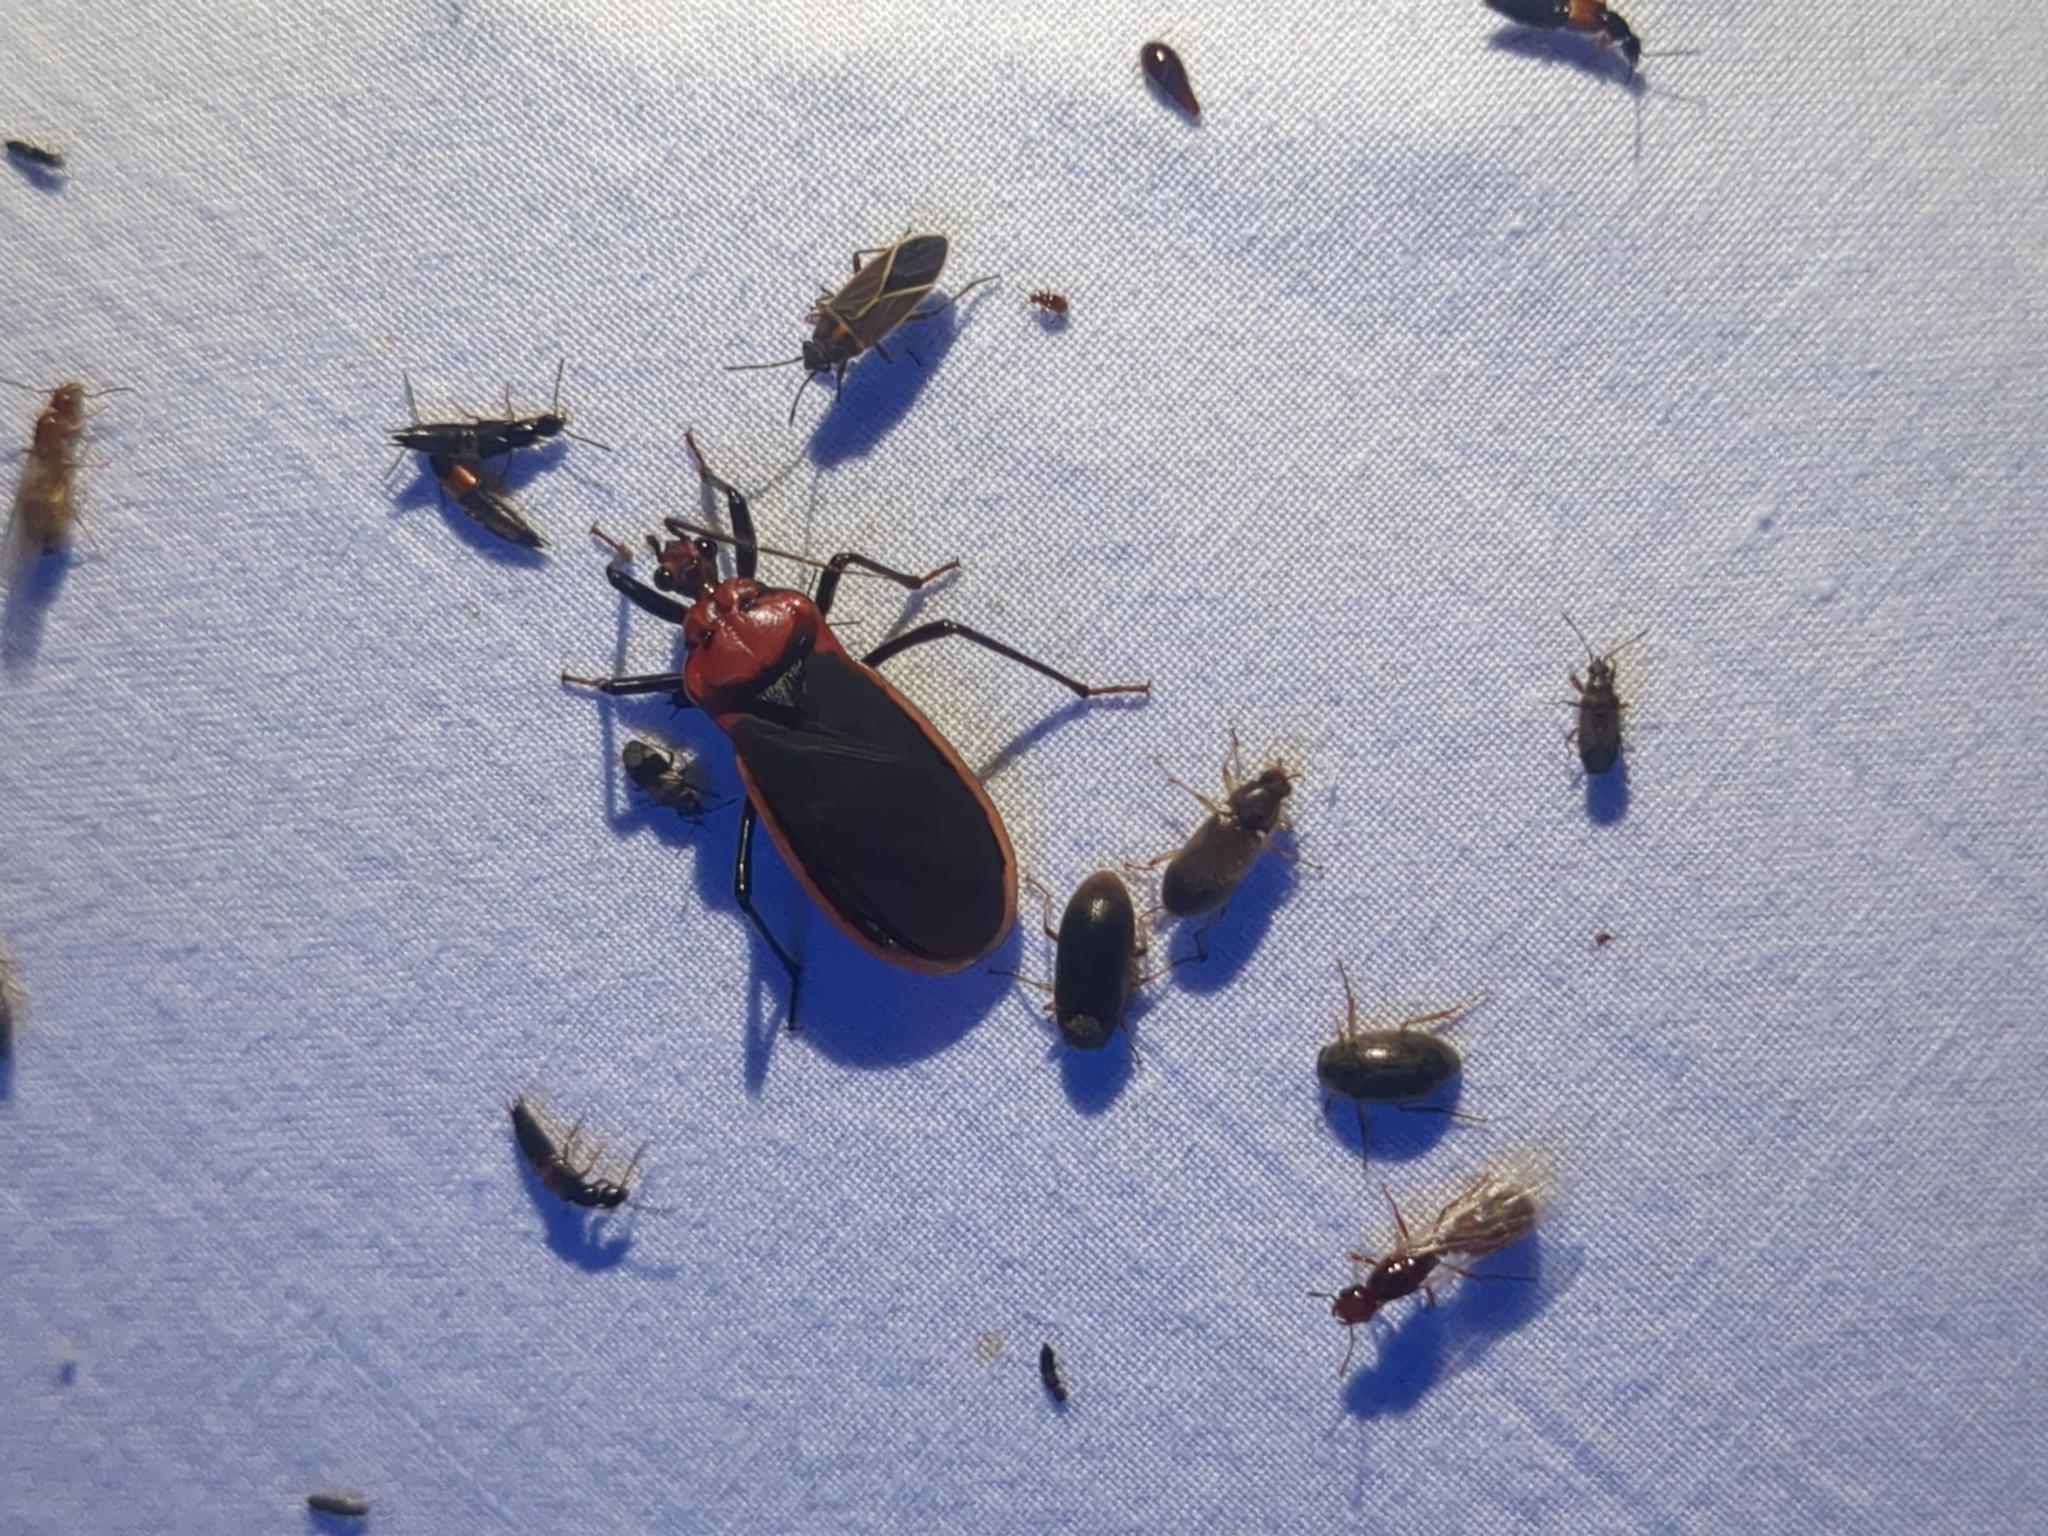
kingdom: Animalia
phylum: Arthropoda
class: Insecta
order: Hemiptera
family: Reduviidae
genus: Rhiginia
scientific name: Rhiginia cinctiventris
